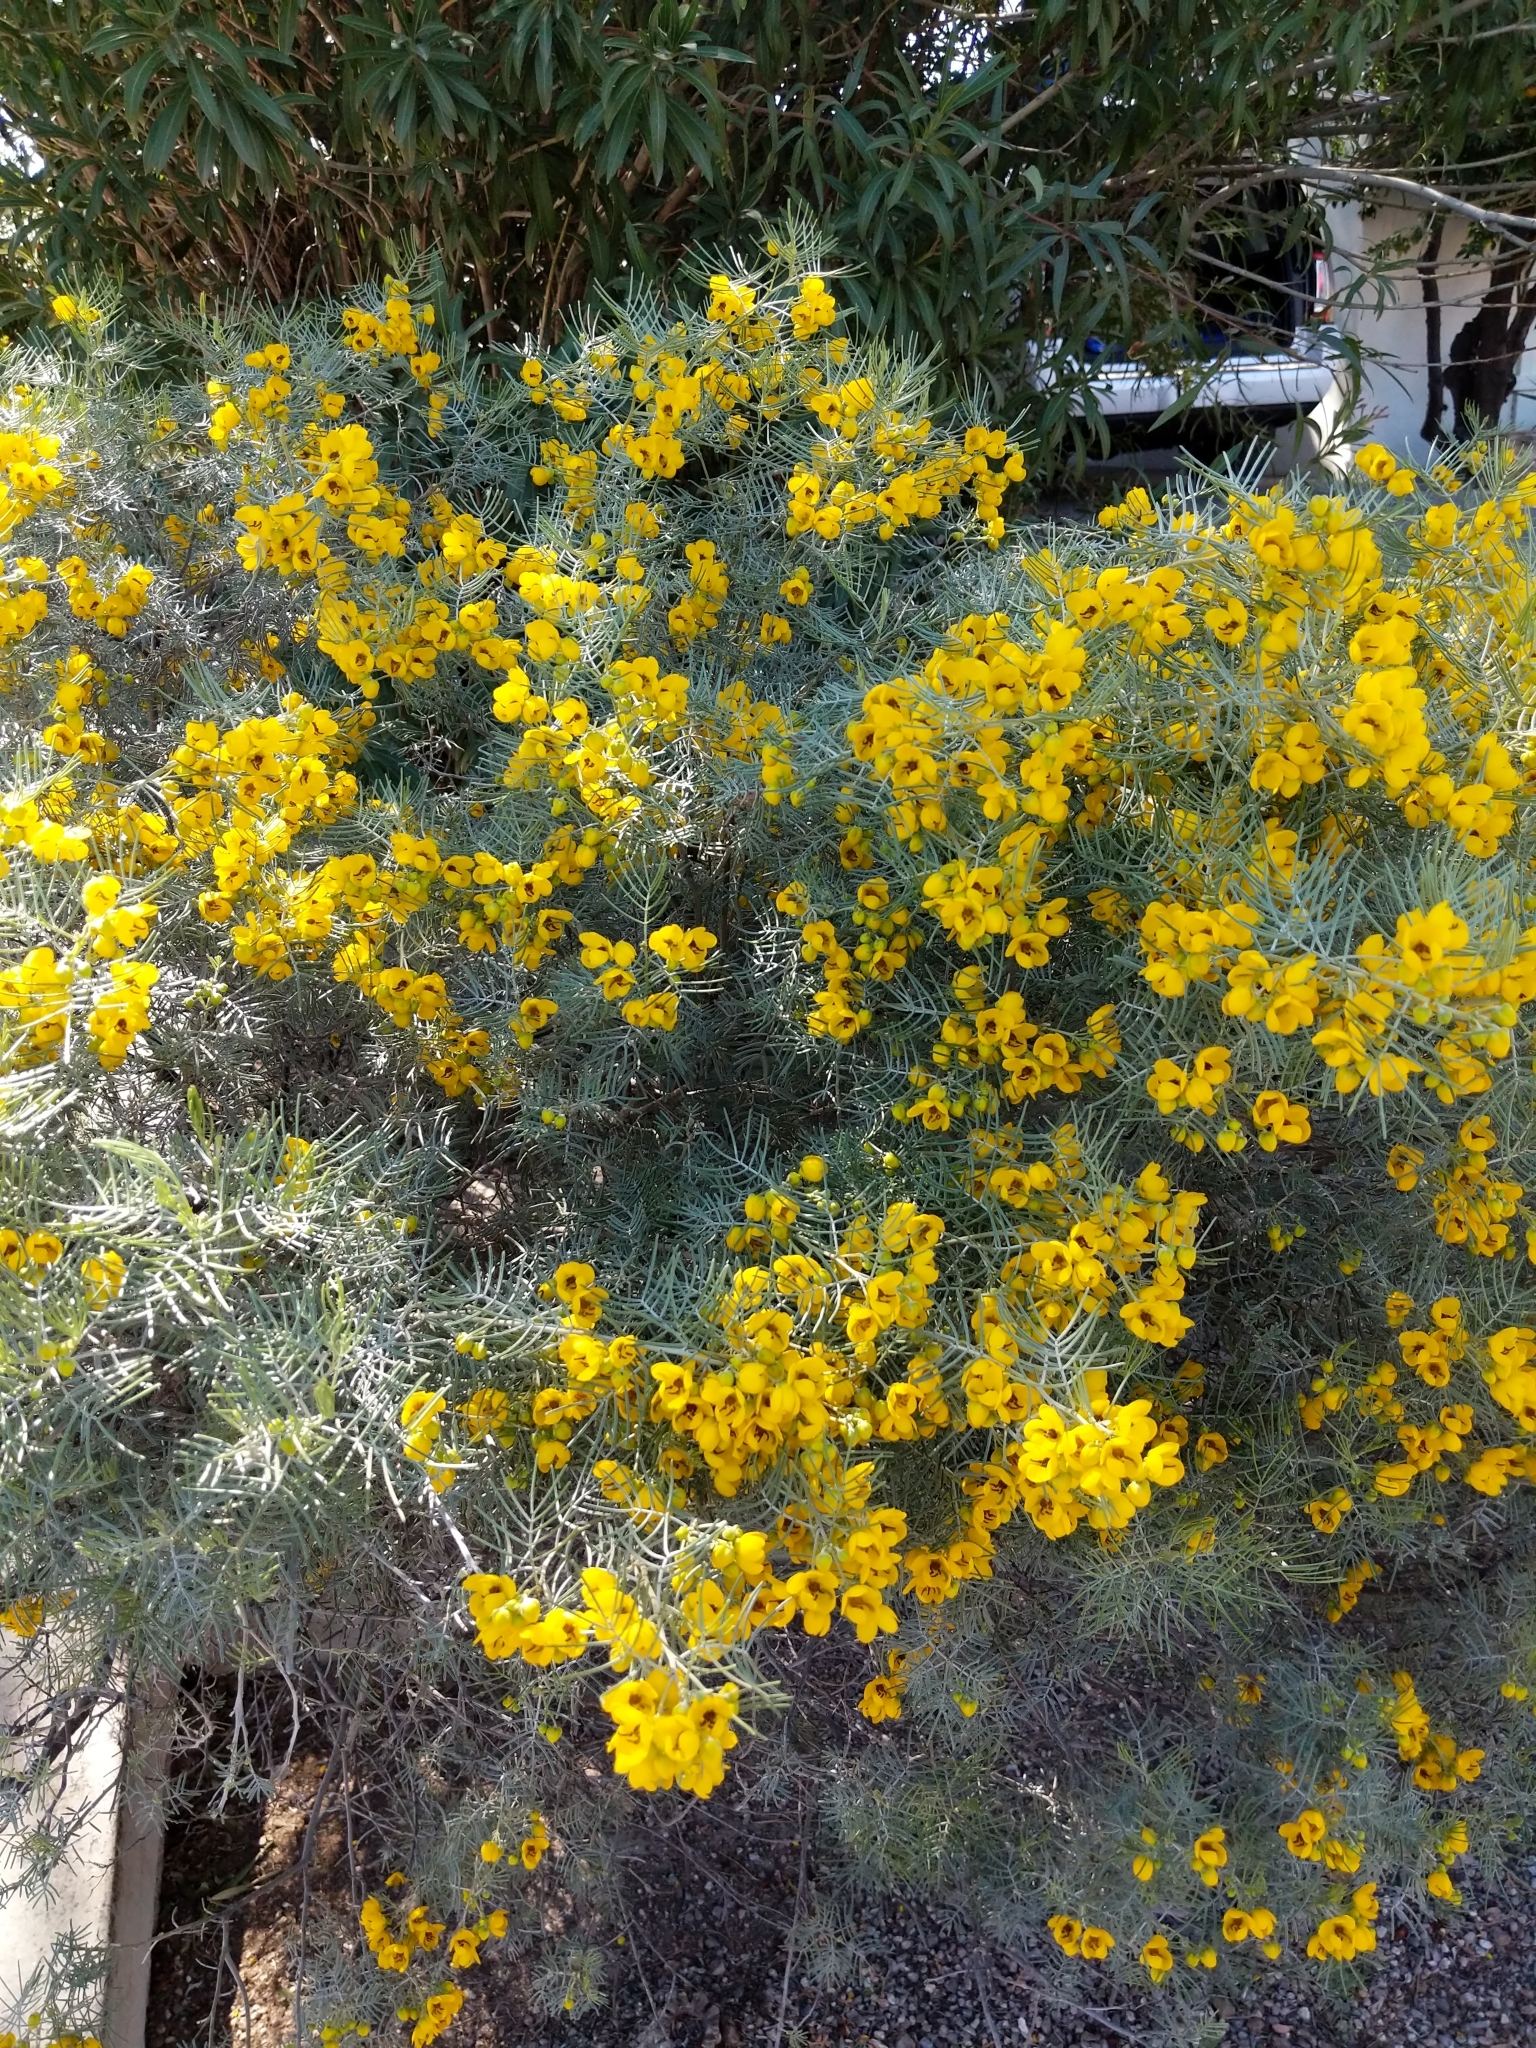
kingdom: Plantae
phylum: Tracheophyta
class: Magnoliopsida
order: Fabales
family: Fabaceae
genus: Senna
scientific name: Senna artemisioides
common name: Burnt-leaved acacia
